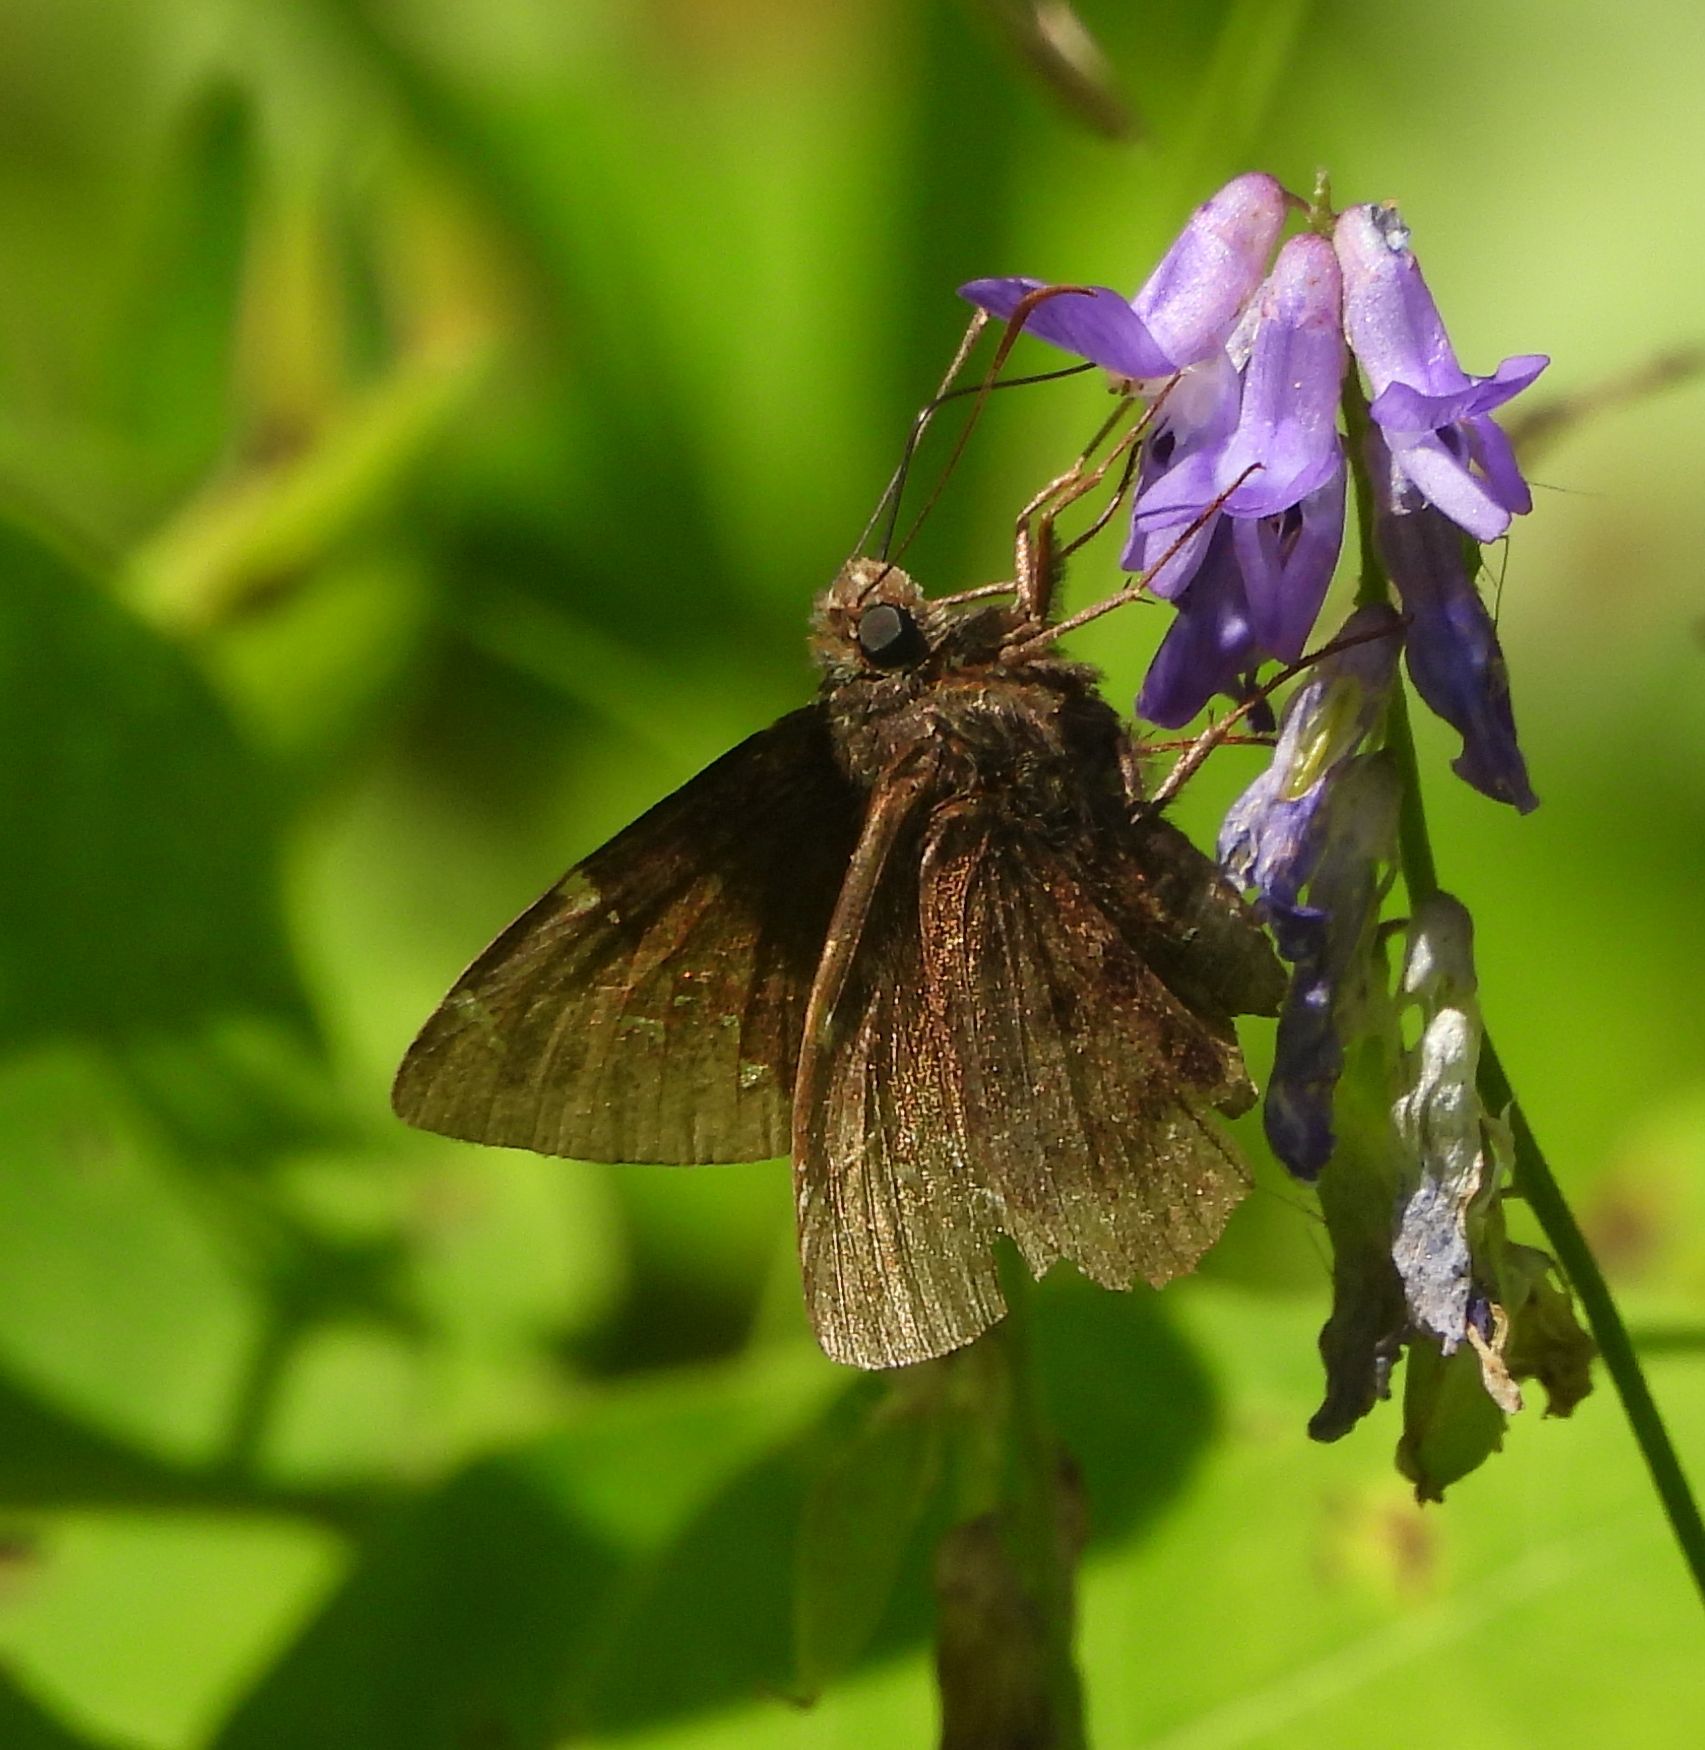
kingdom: Animalia
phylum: Arthropoda
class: Insecta
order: Lepidoptera
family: Hesperiidae
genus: Thorybes
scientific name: Thorybes pylades
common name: Northern cloudywing
